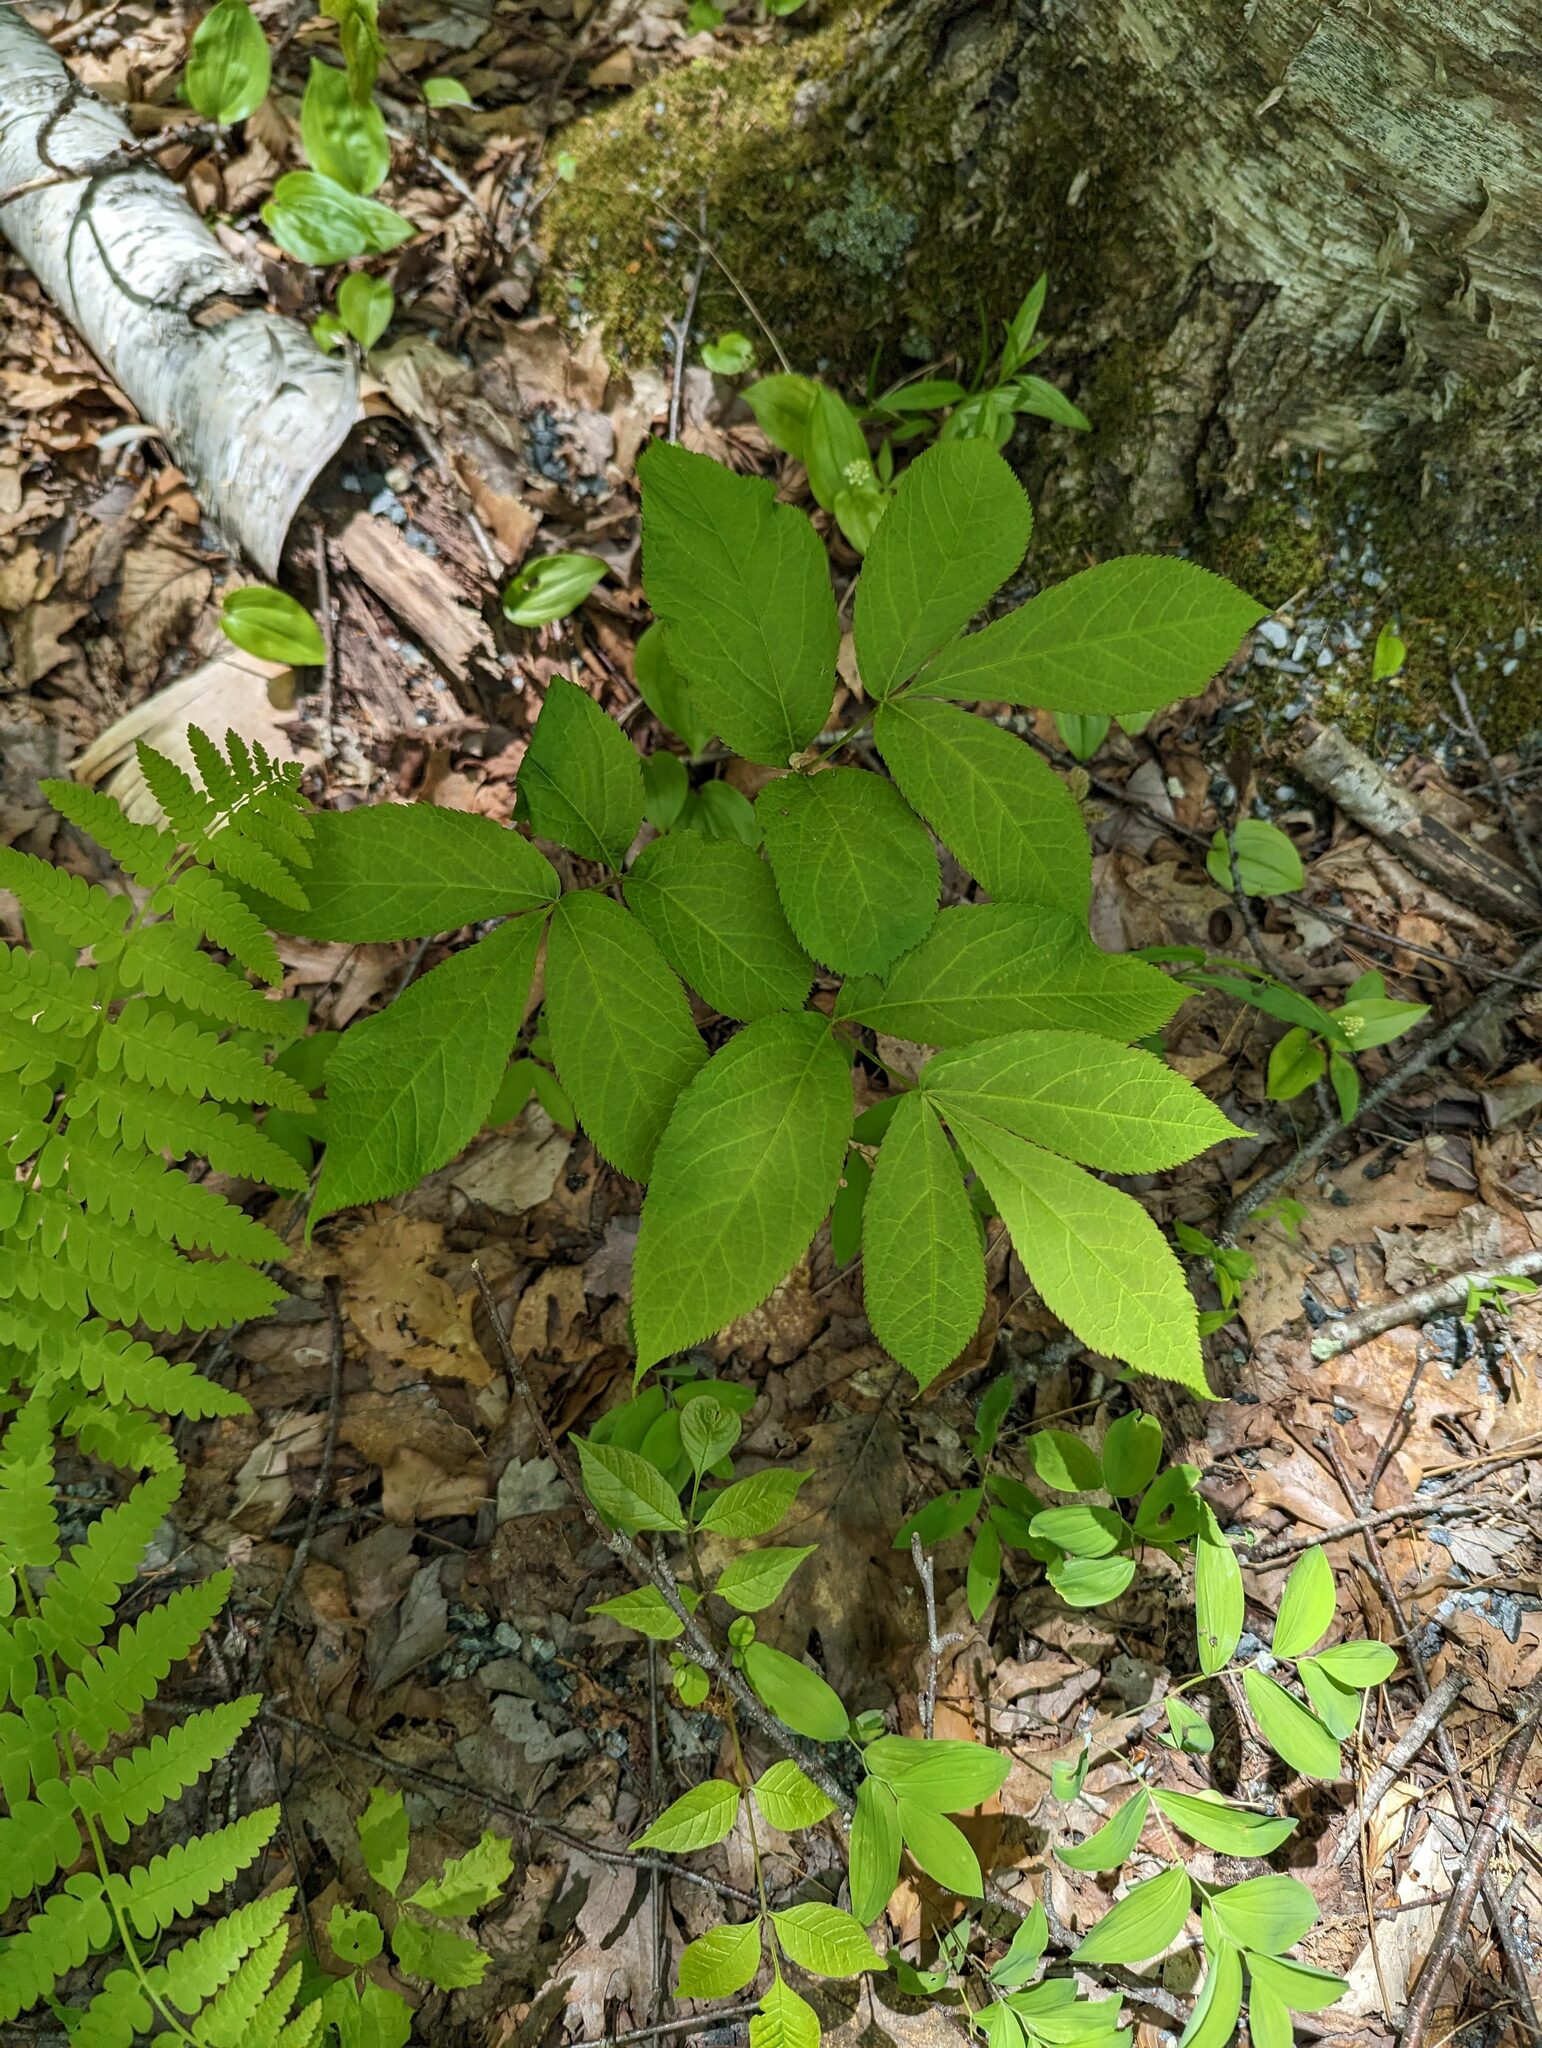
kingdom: Plantae
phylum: Tracheophyta
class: Magnoliopsida
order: Apiales
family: Araliaceae
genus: Aralia
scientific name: Aralia nudicaulis
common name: Wild sarsaparilla
